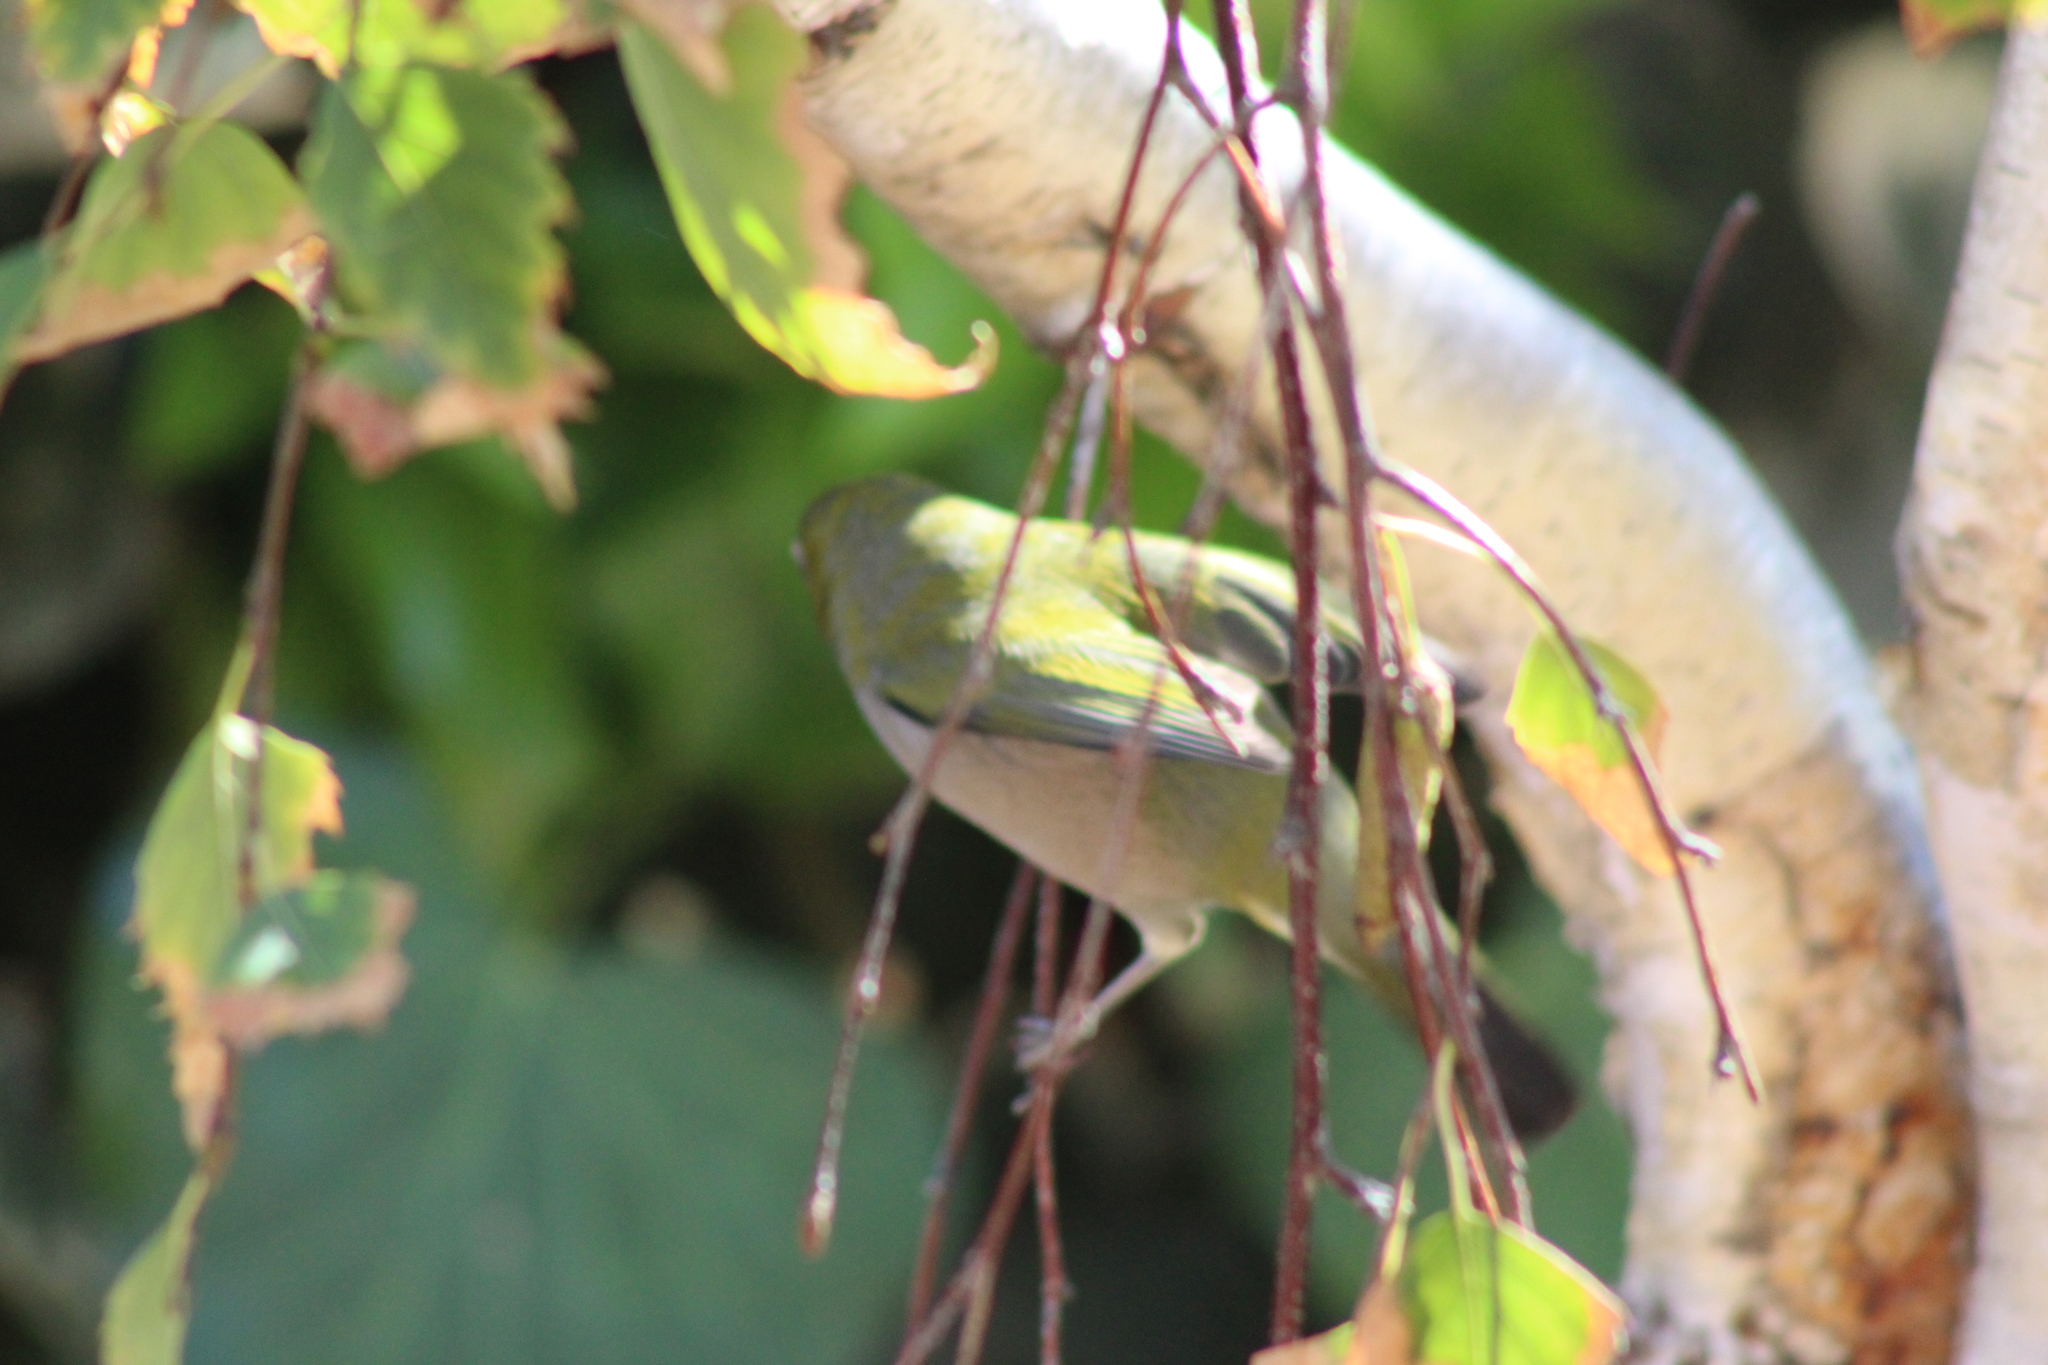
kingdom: Animalia
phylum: Chordata
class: Aves
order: Passeriformes
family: Zosteropidae
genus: Zosterops
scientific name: Zosterops virens
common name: Cape white-eye
